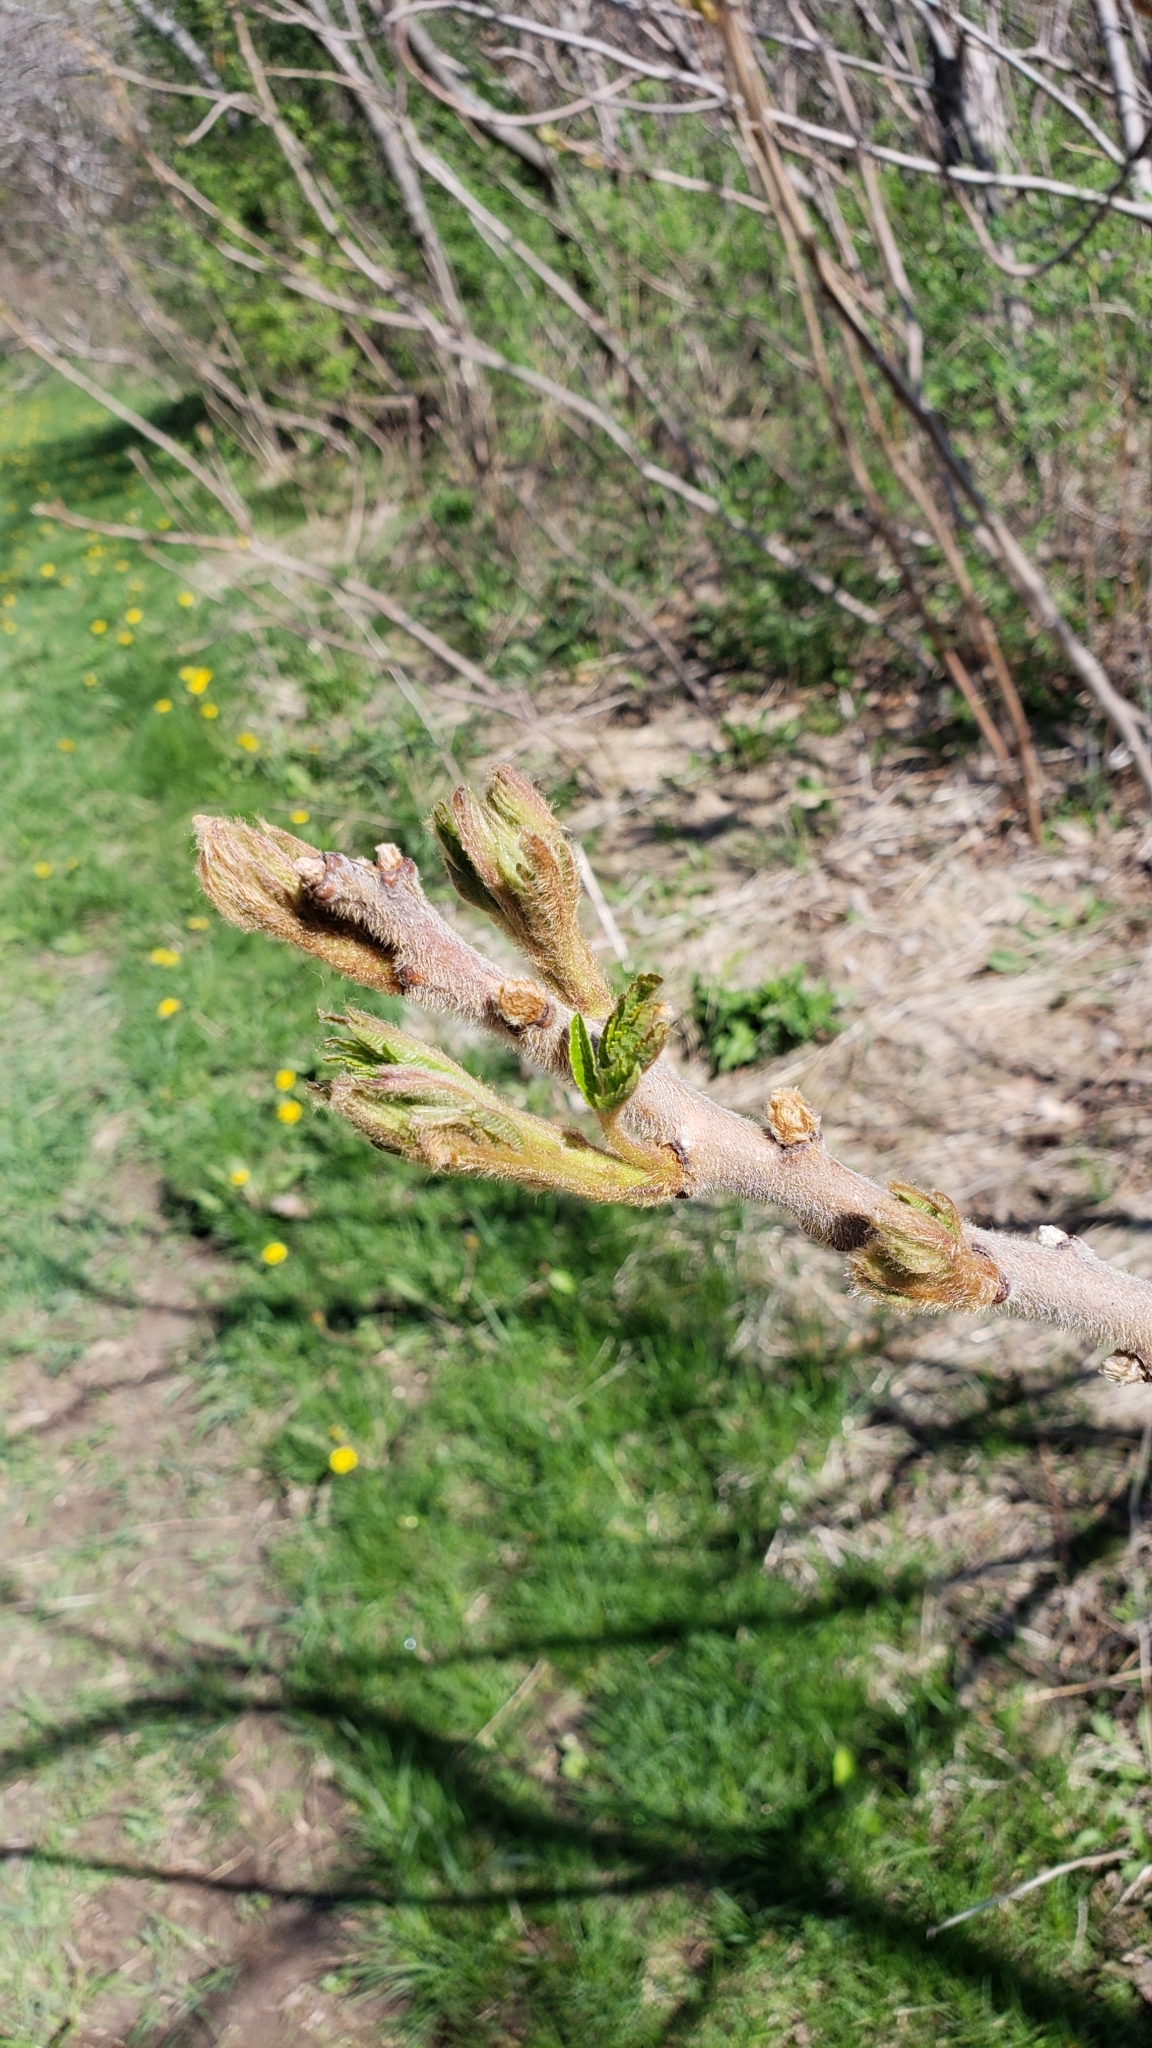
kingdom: Plantae
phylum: Tracheophyta
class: Magnoliopsida
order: Sapindales
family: Anacardiaceae
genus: Rhus
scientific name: Rhus typhina
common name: Staghorn sumac
